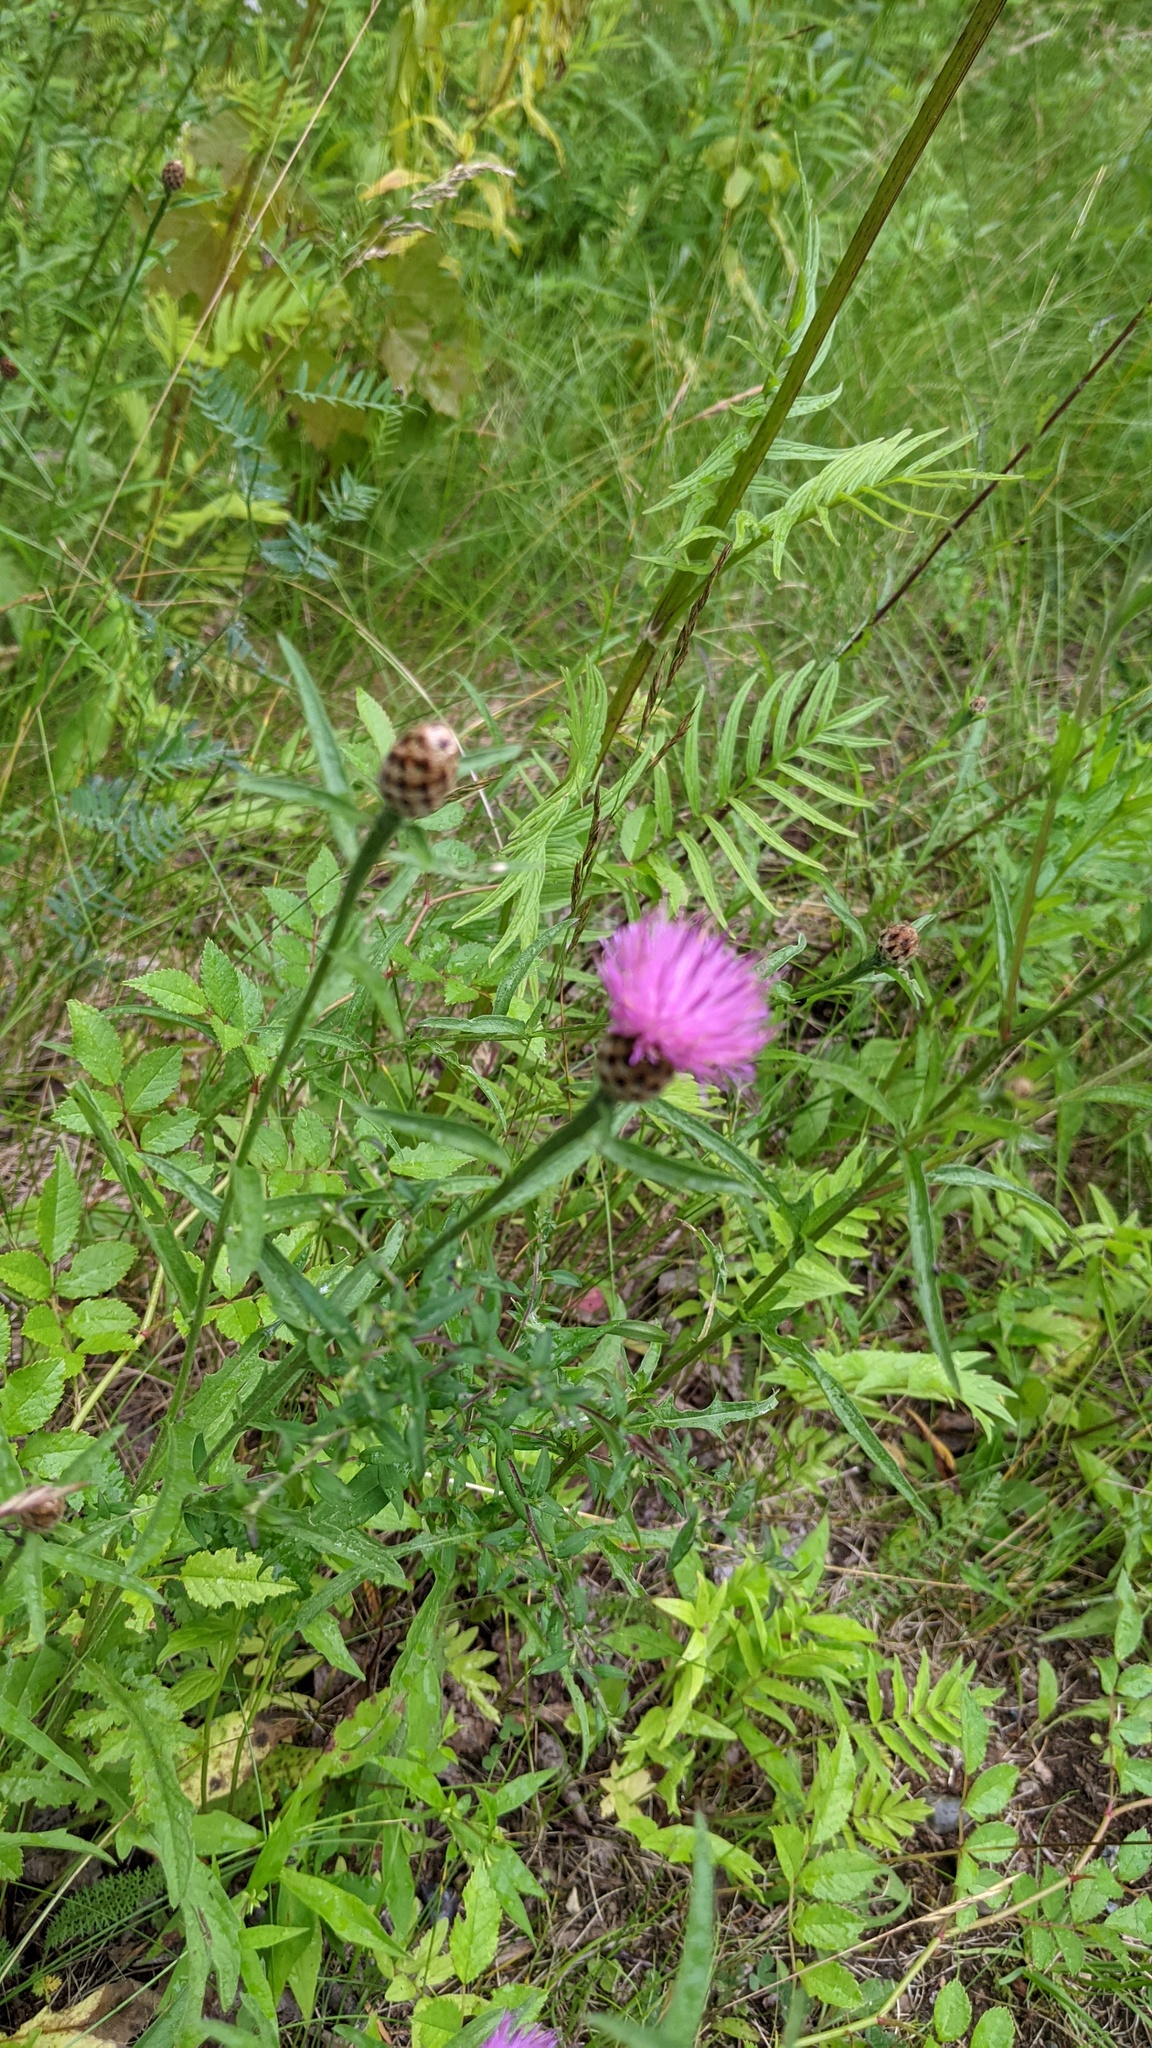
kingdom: Plantae
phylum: Tracheophyta
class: Magnoliopsida
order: Asterales
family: Asteraceae
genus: Centaurea
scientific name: Centaurea nigra
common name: Lesser knapweed
